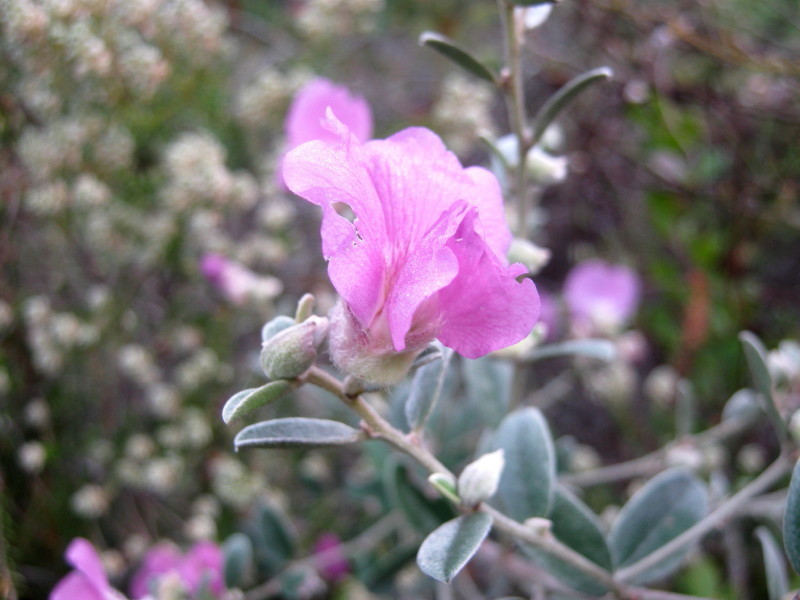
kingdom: Plantae
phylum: Tracheophyta
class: Magnoliopsida
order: Fabales
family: Fabaceae
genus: Podalyria
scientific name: Podalyria burchellii
